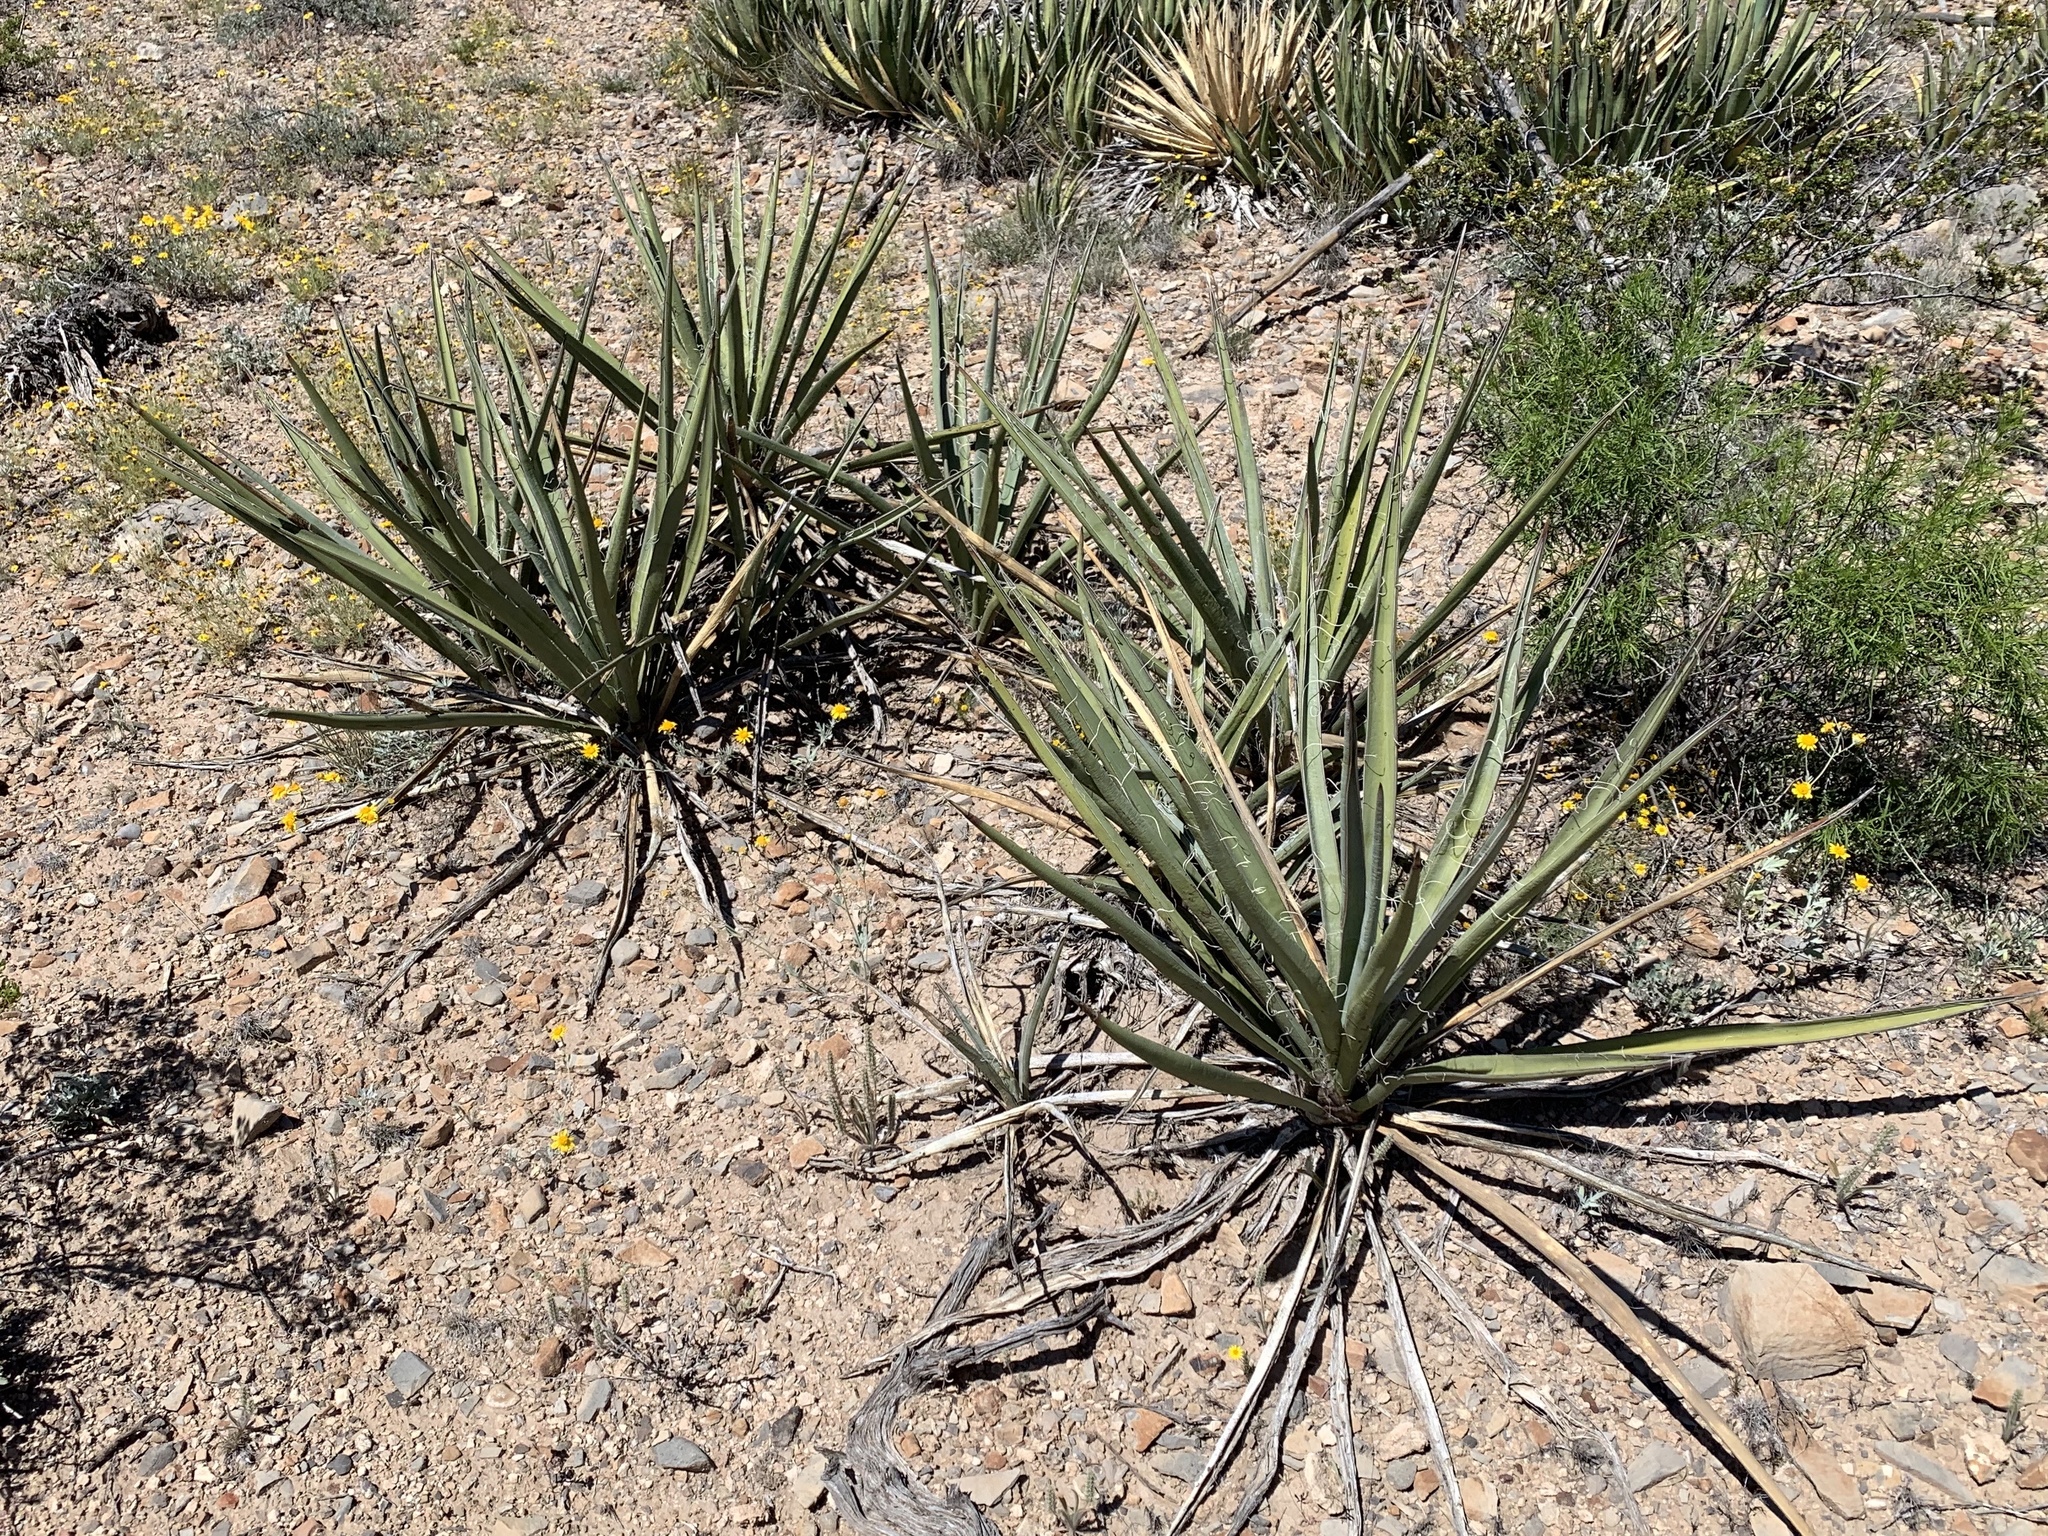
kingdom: Plantae
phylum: Tracheophyta
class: Liliopsida
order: Asparagales
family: Asparagaceae
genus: Yucca
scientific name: Yucca baccata
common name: Banana yucca
